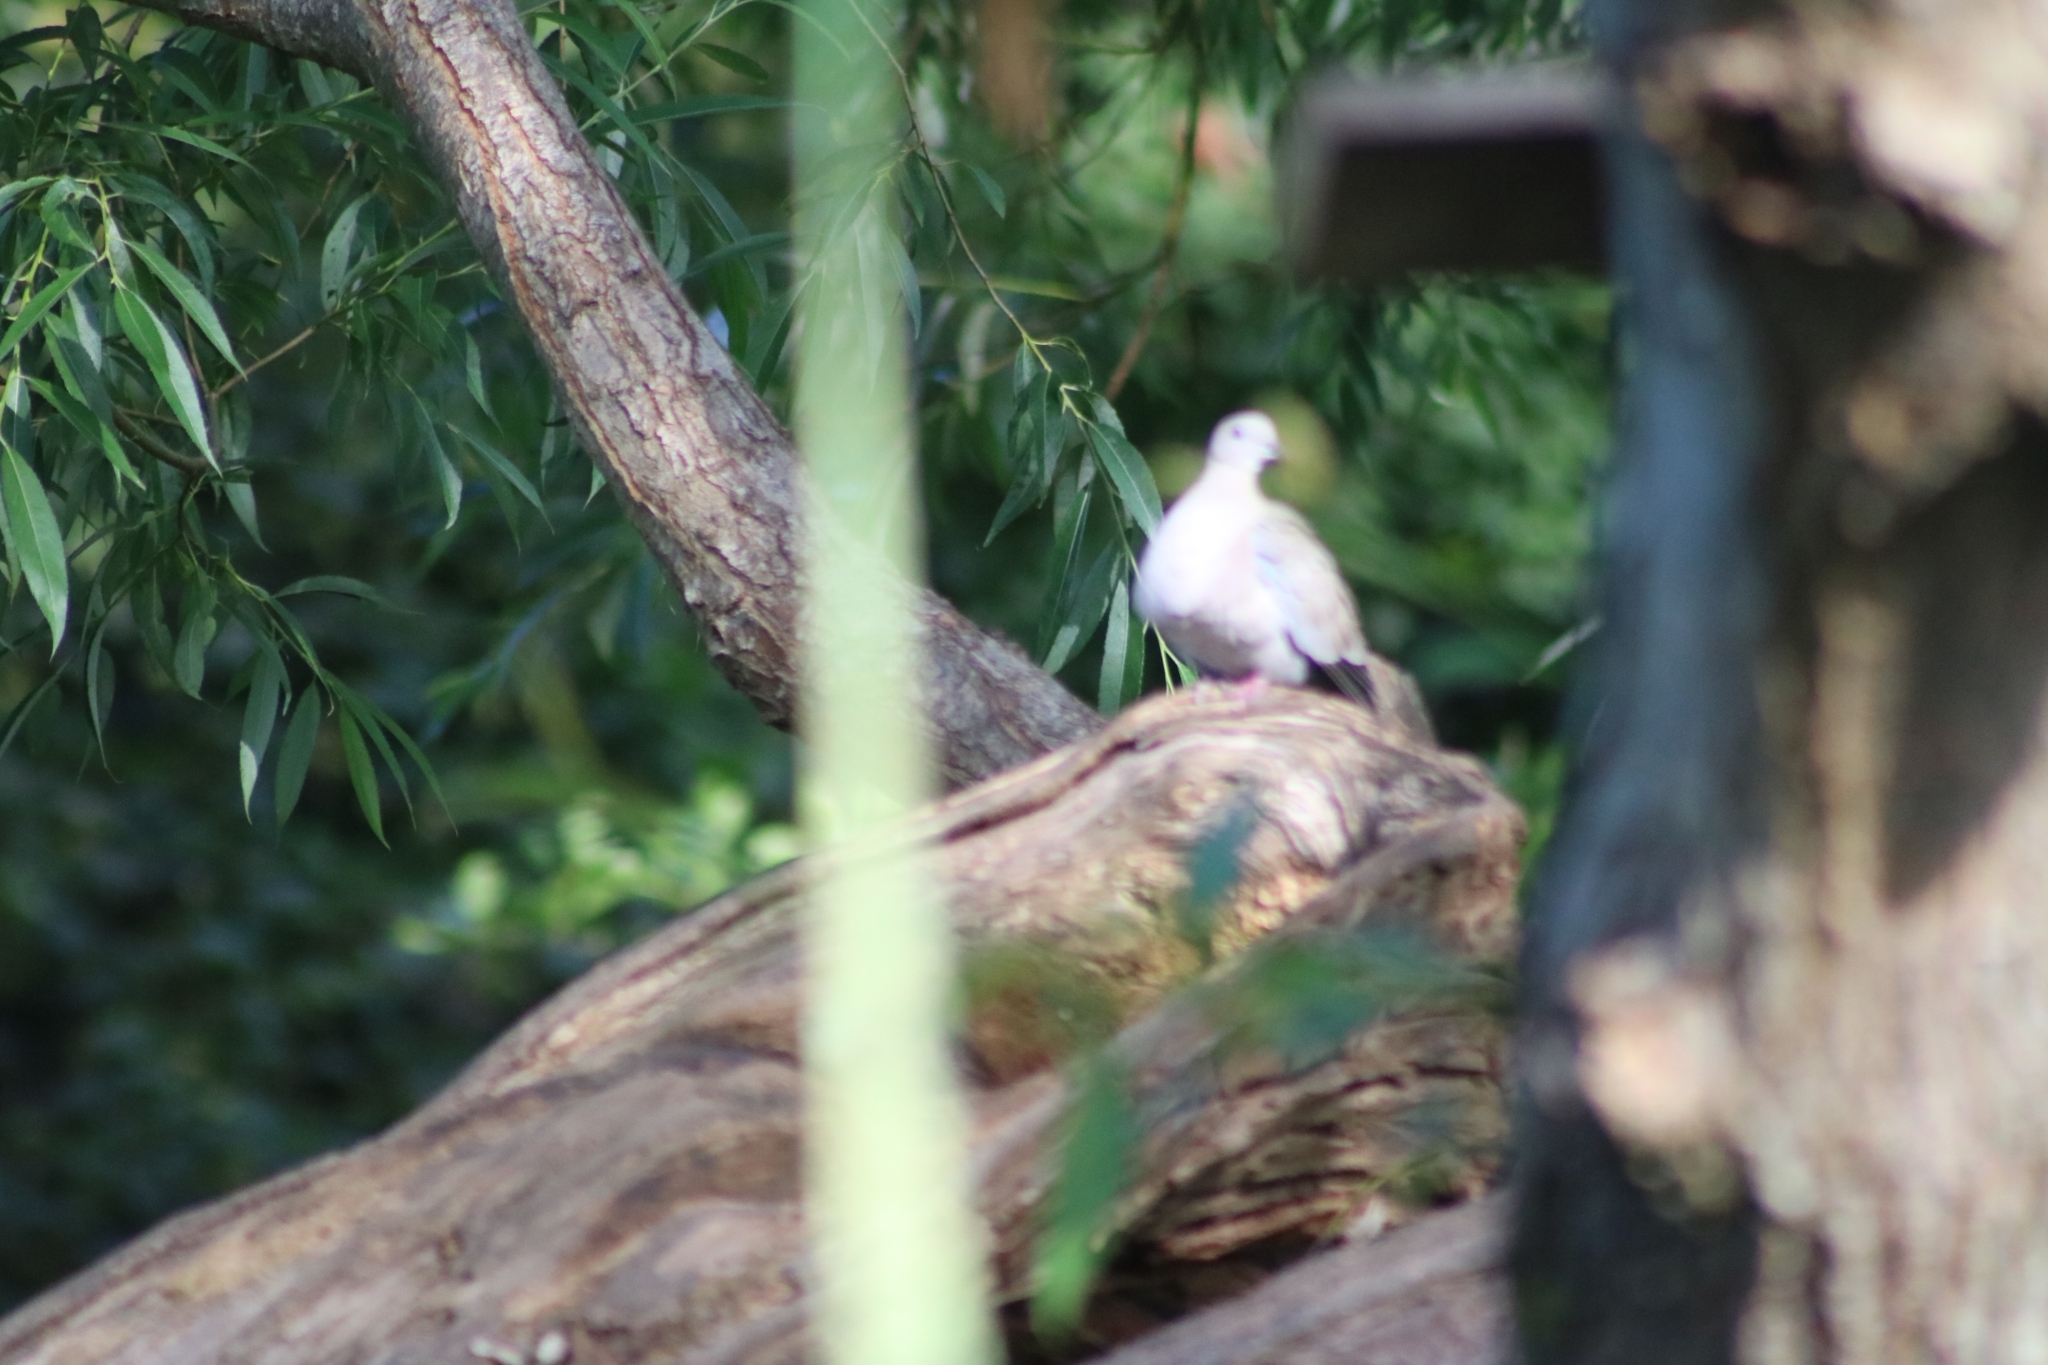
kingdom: Animalia
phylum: Chordata
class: Aves
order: Columbiformes
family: Columbidae
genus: Streptopelia
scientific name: Streptopelia decaocto
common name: Eurasian collared dove
